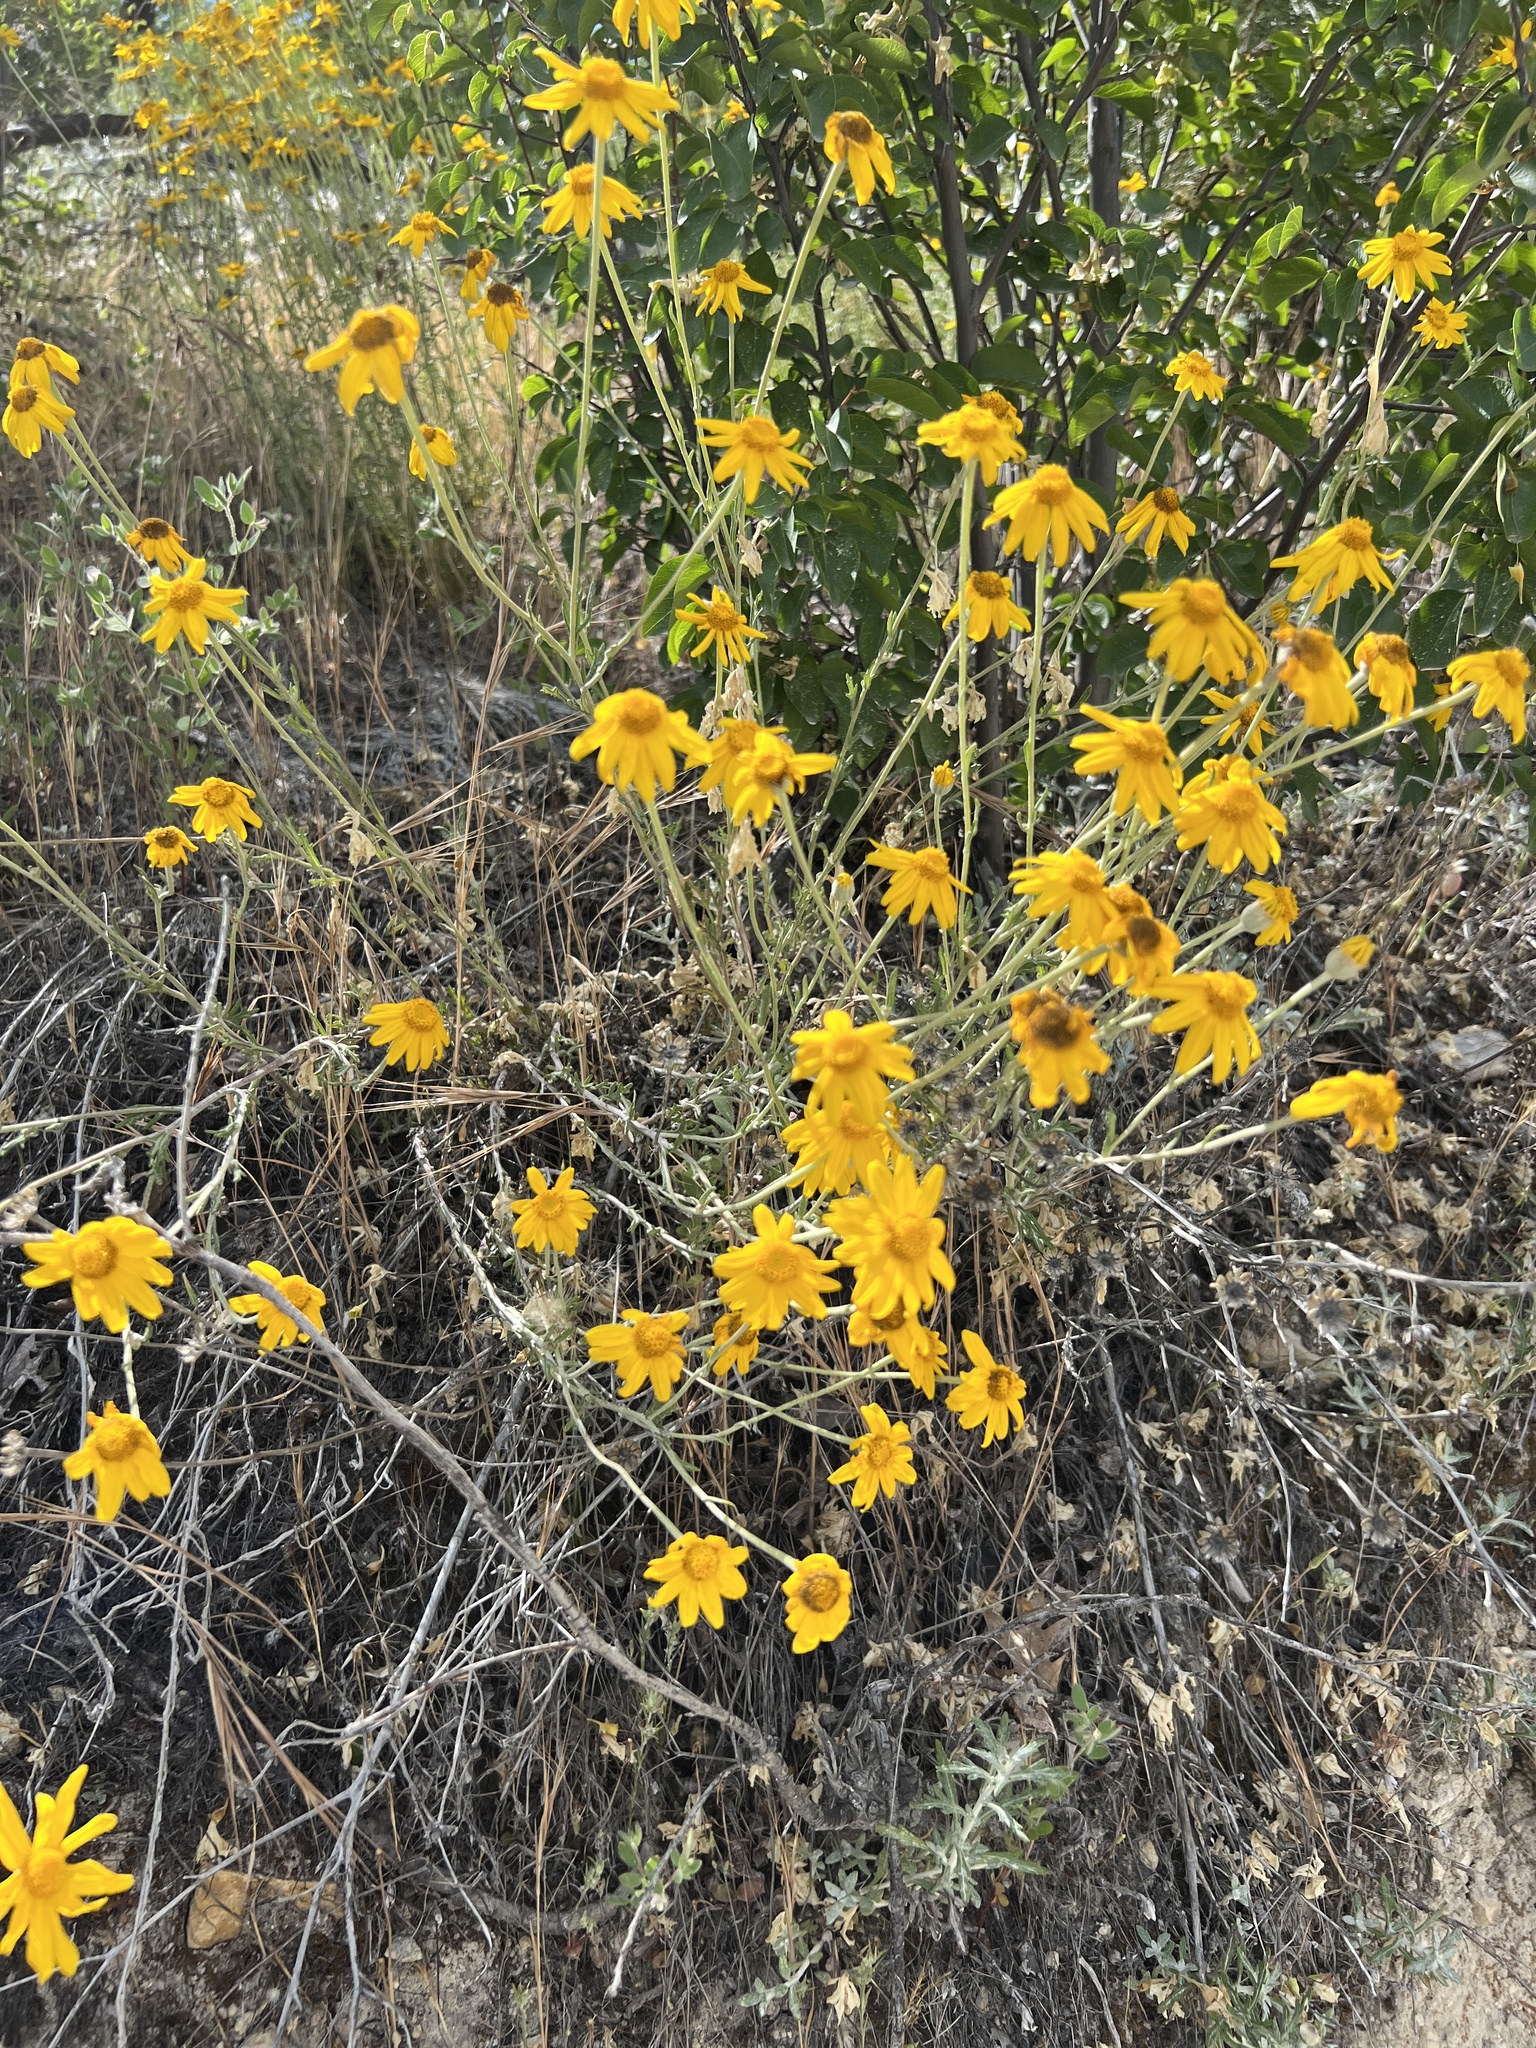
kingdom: Plantae
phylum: Tracheophyta
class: Magnoliopsida
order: Asterales
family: Asteraceae
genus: Eriophyllum
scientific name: Eriophyllum lanatum
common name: Common woolly-sunflower
